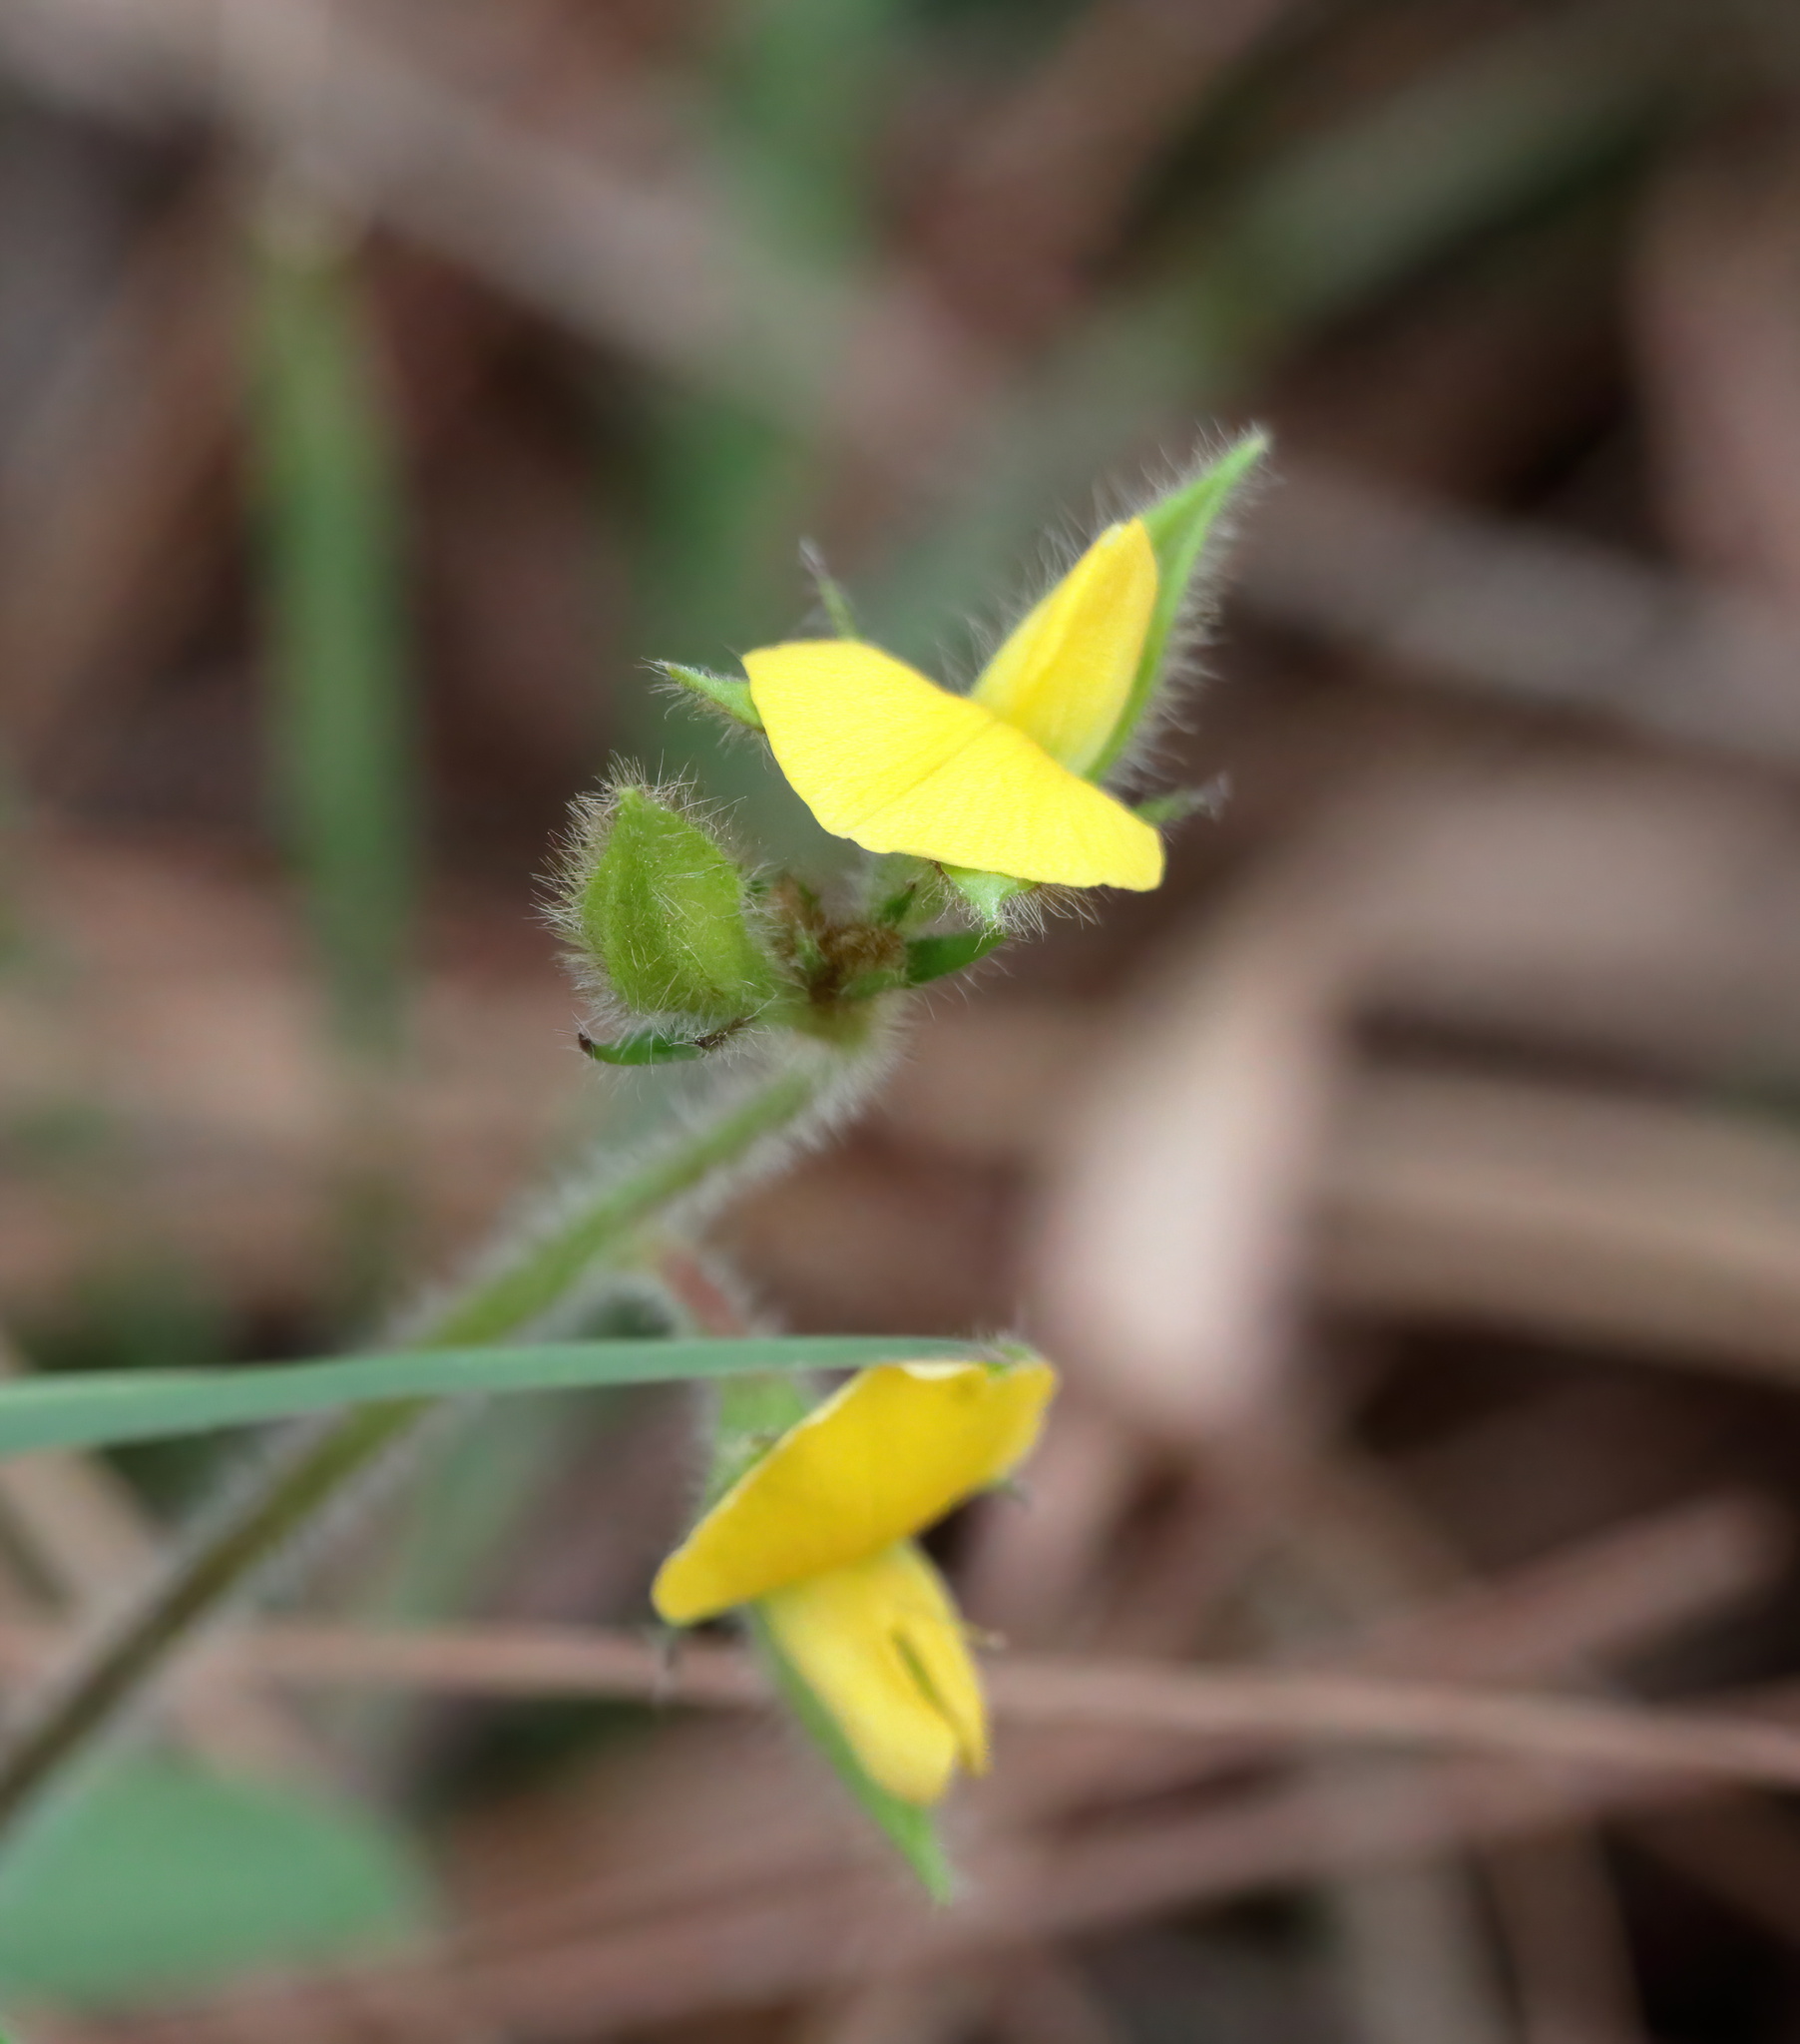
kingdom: Plantae
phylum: Tracheophyta
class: Magnoliopsida
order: Fabales
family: Fabaceae
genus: Crotalaria
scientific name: Crotalaria rotundifolia
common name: Prostrate rattlebox
